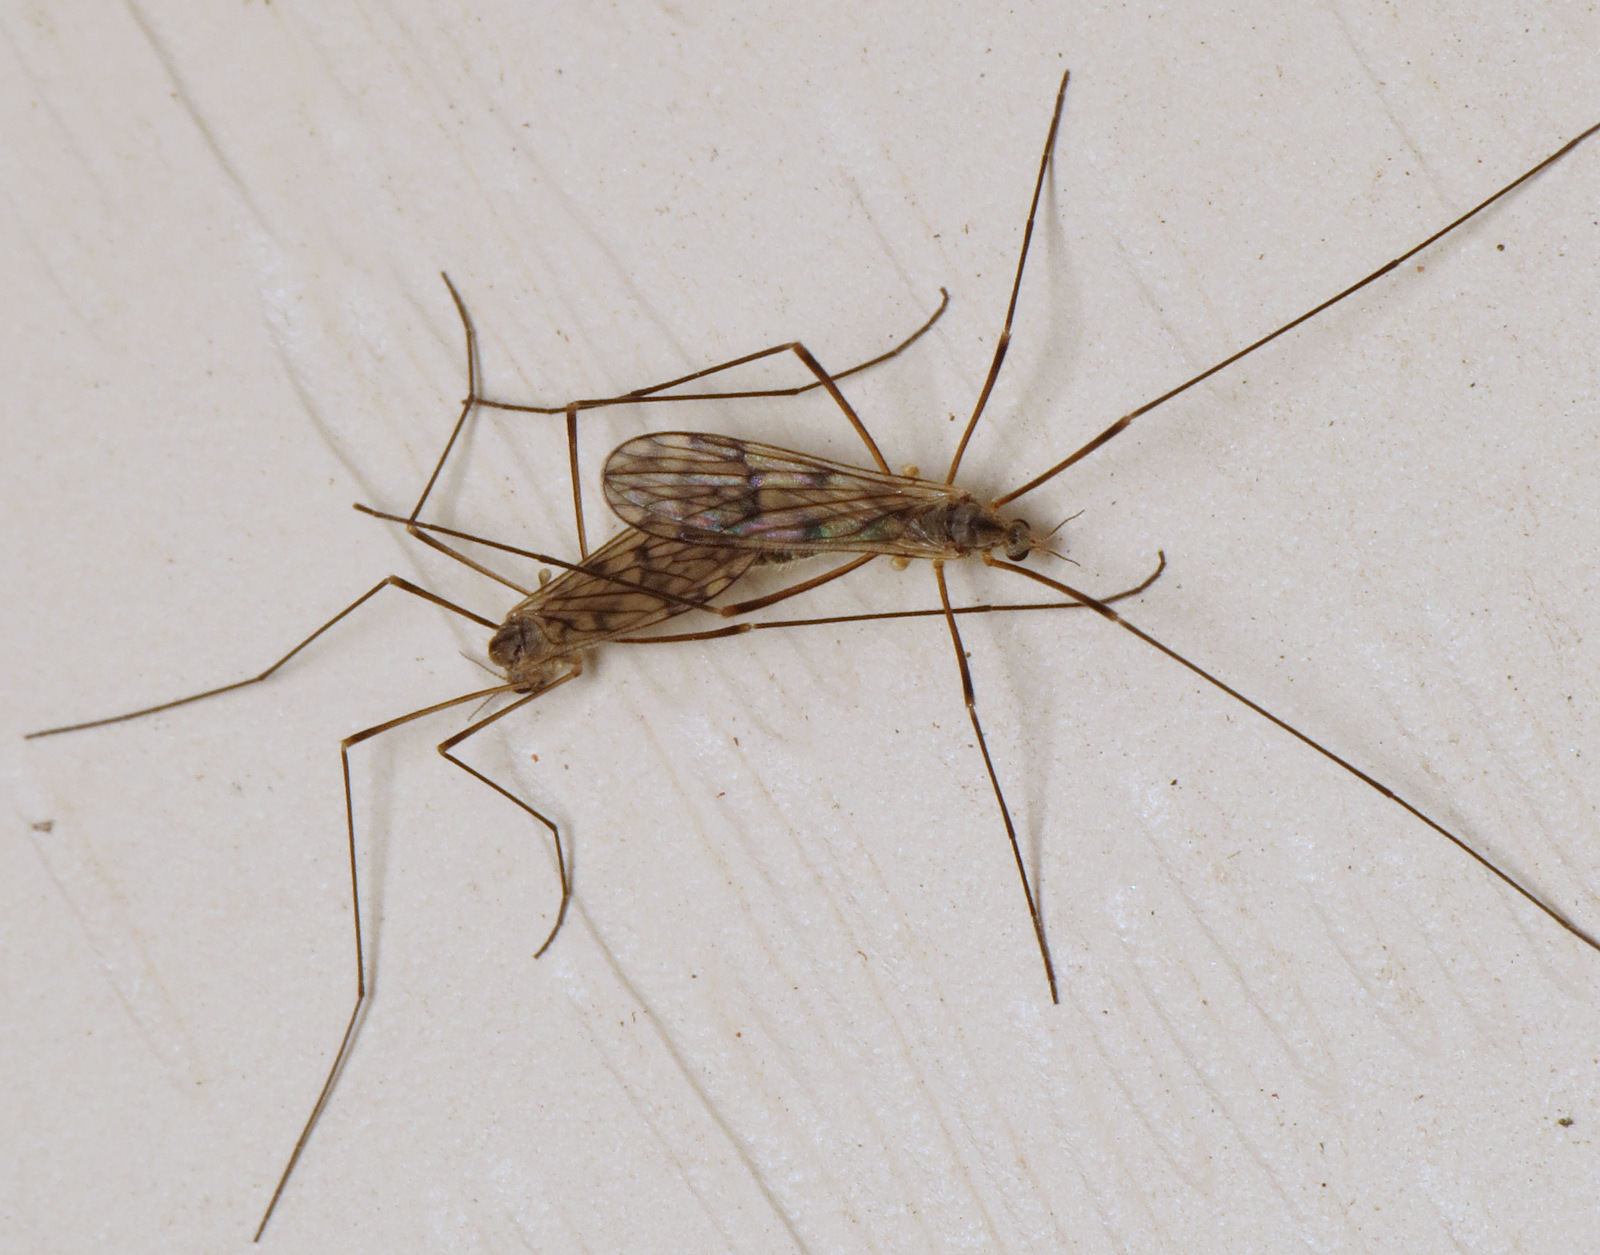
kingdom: Animalia
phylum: Arthropoda
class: Insecta
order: Diptera
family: Limoniidae
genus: Dactylolabis
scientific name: Dactylolabis montana
